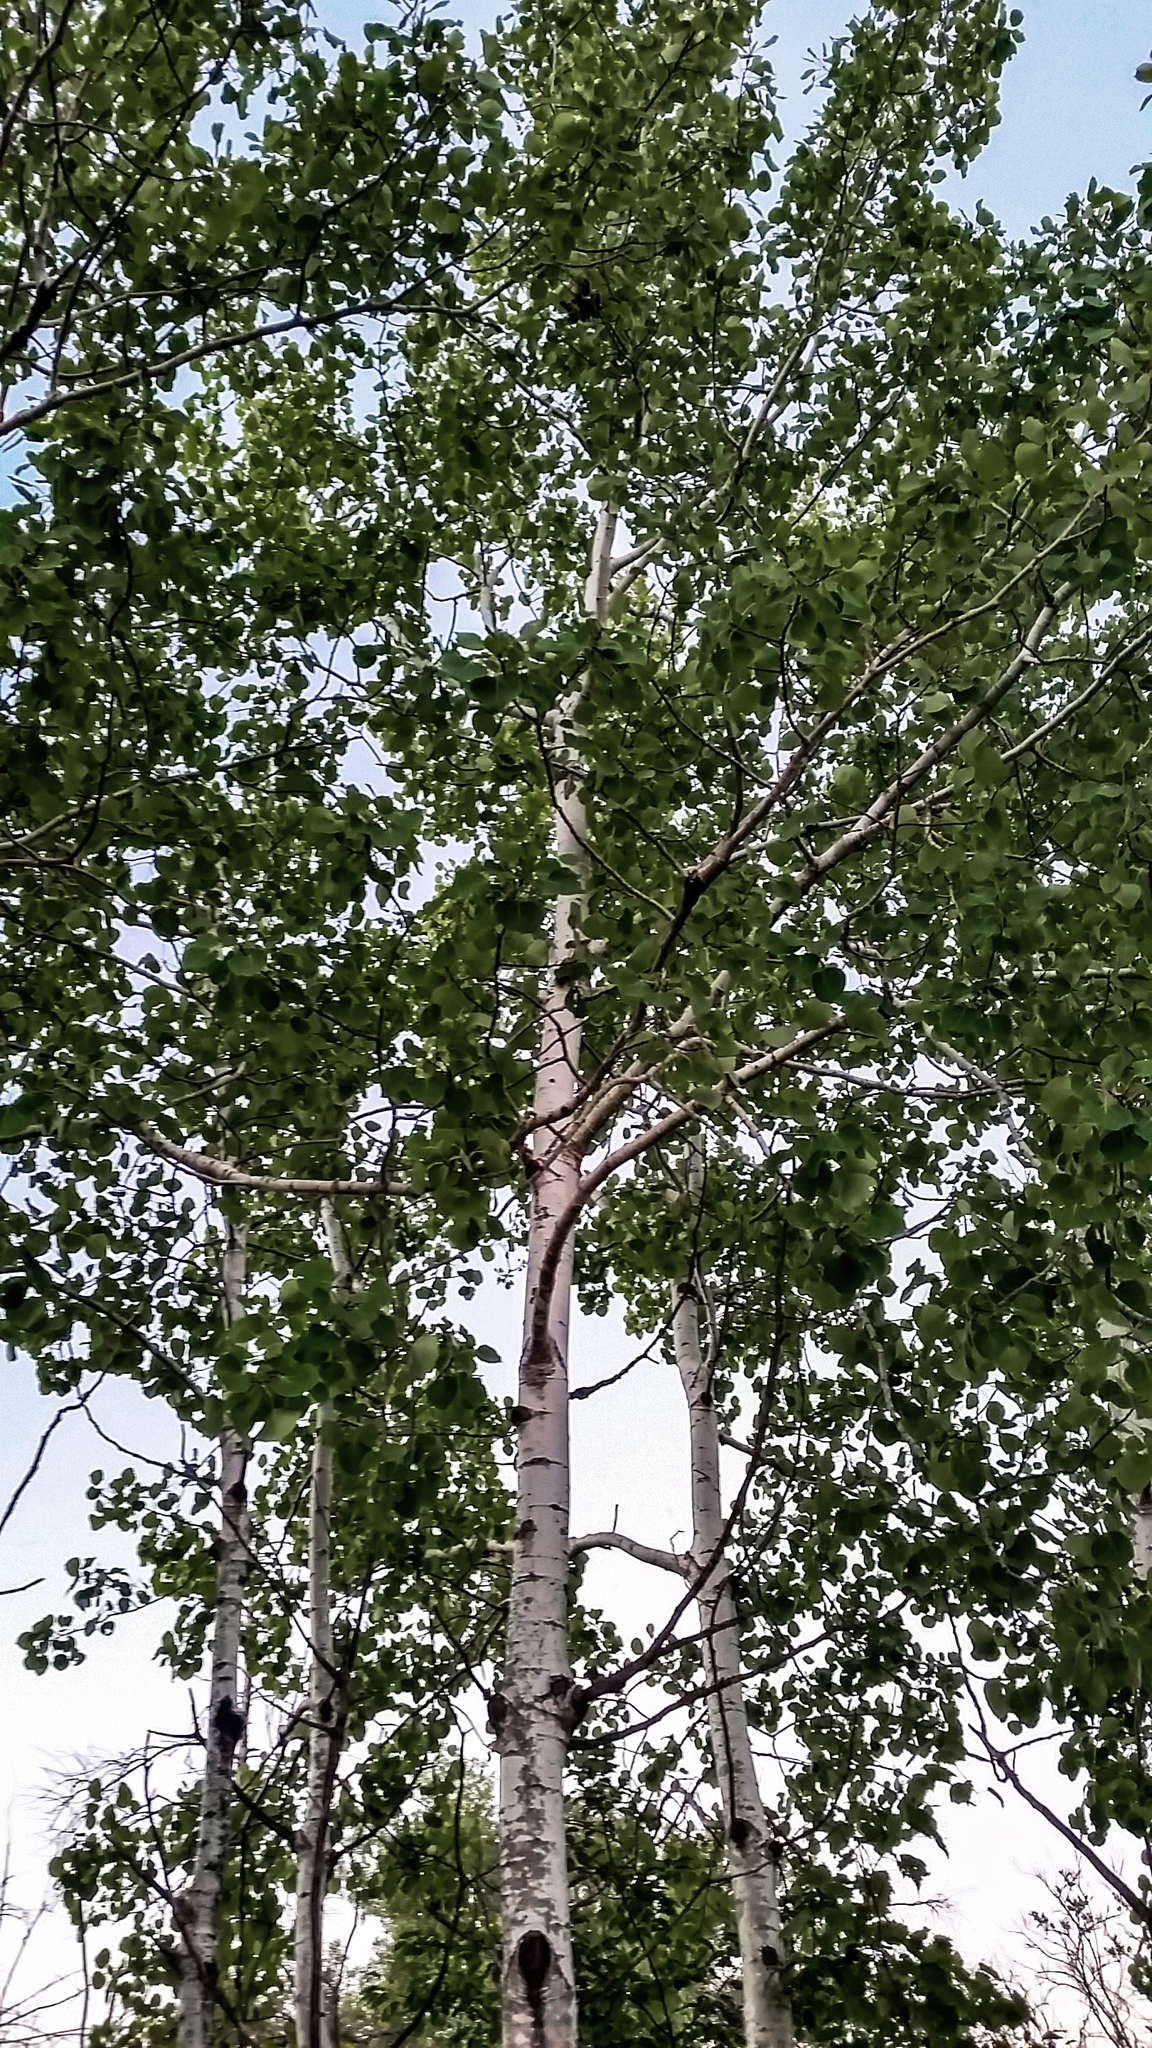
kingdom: Plantae
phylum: Tracheophyta
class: Magnoliopsida
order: Malpighiales
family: Salicaceae
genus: Populus
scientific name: Populus tremuloides
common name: Quaking aspen
